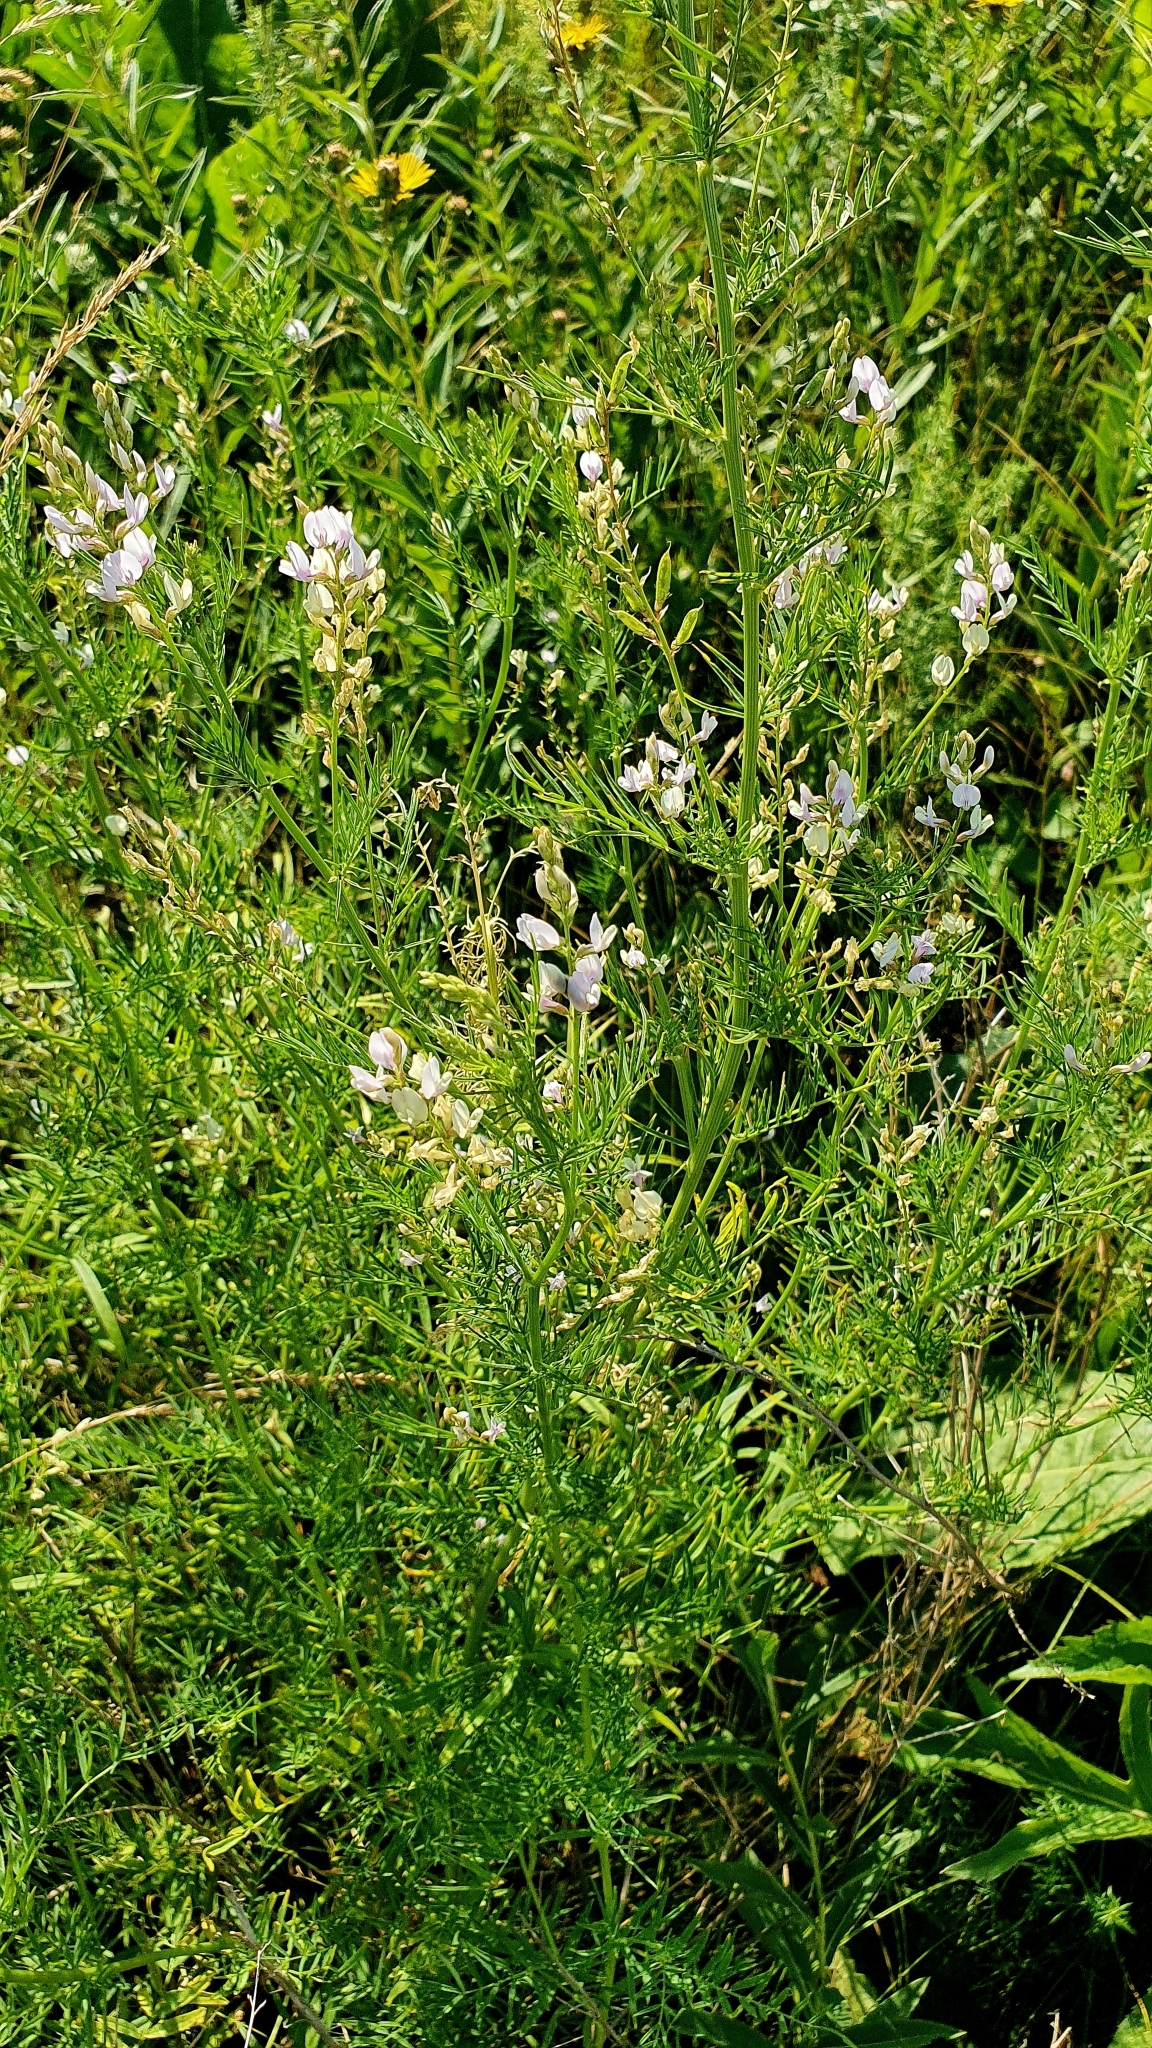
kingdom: Plantae
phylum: Tracheophyta
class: Magnoliopsida
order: Fabales
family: Fabaceae
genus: Astragalus
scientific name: Astragalus sulcatus
